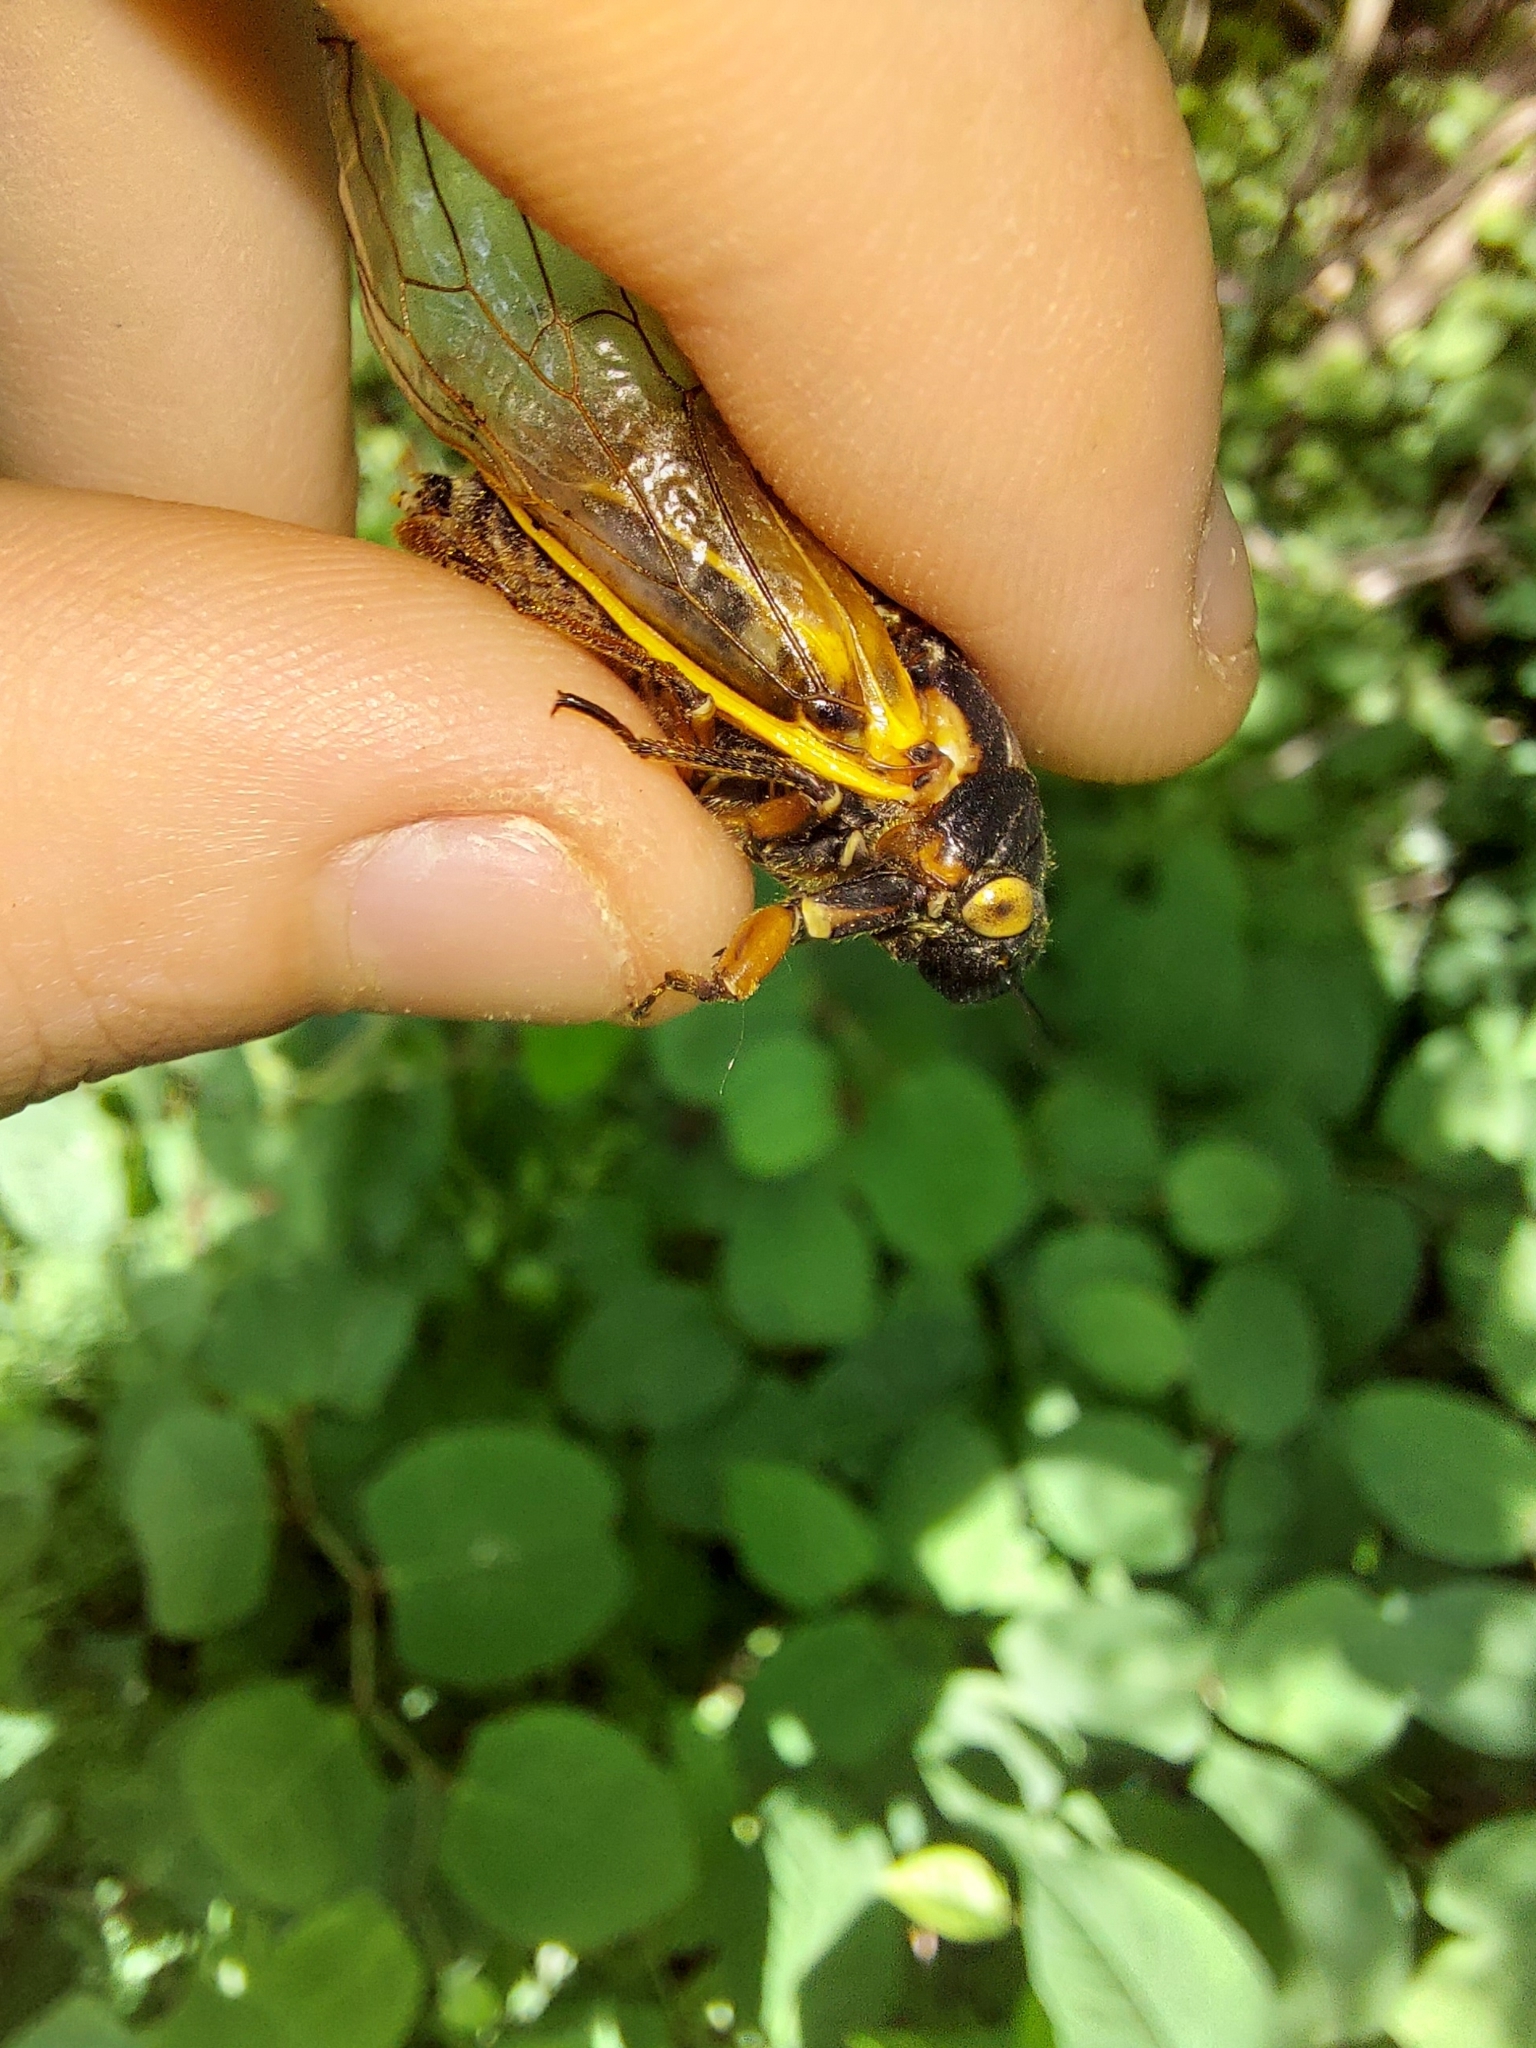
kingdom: Animalia
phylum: Arthropoda
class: Insecta
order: Hemiptera
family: Cicadidae
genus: Magicicada
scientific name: Magicicada septendecim
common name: Periodical cicada
